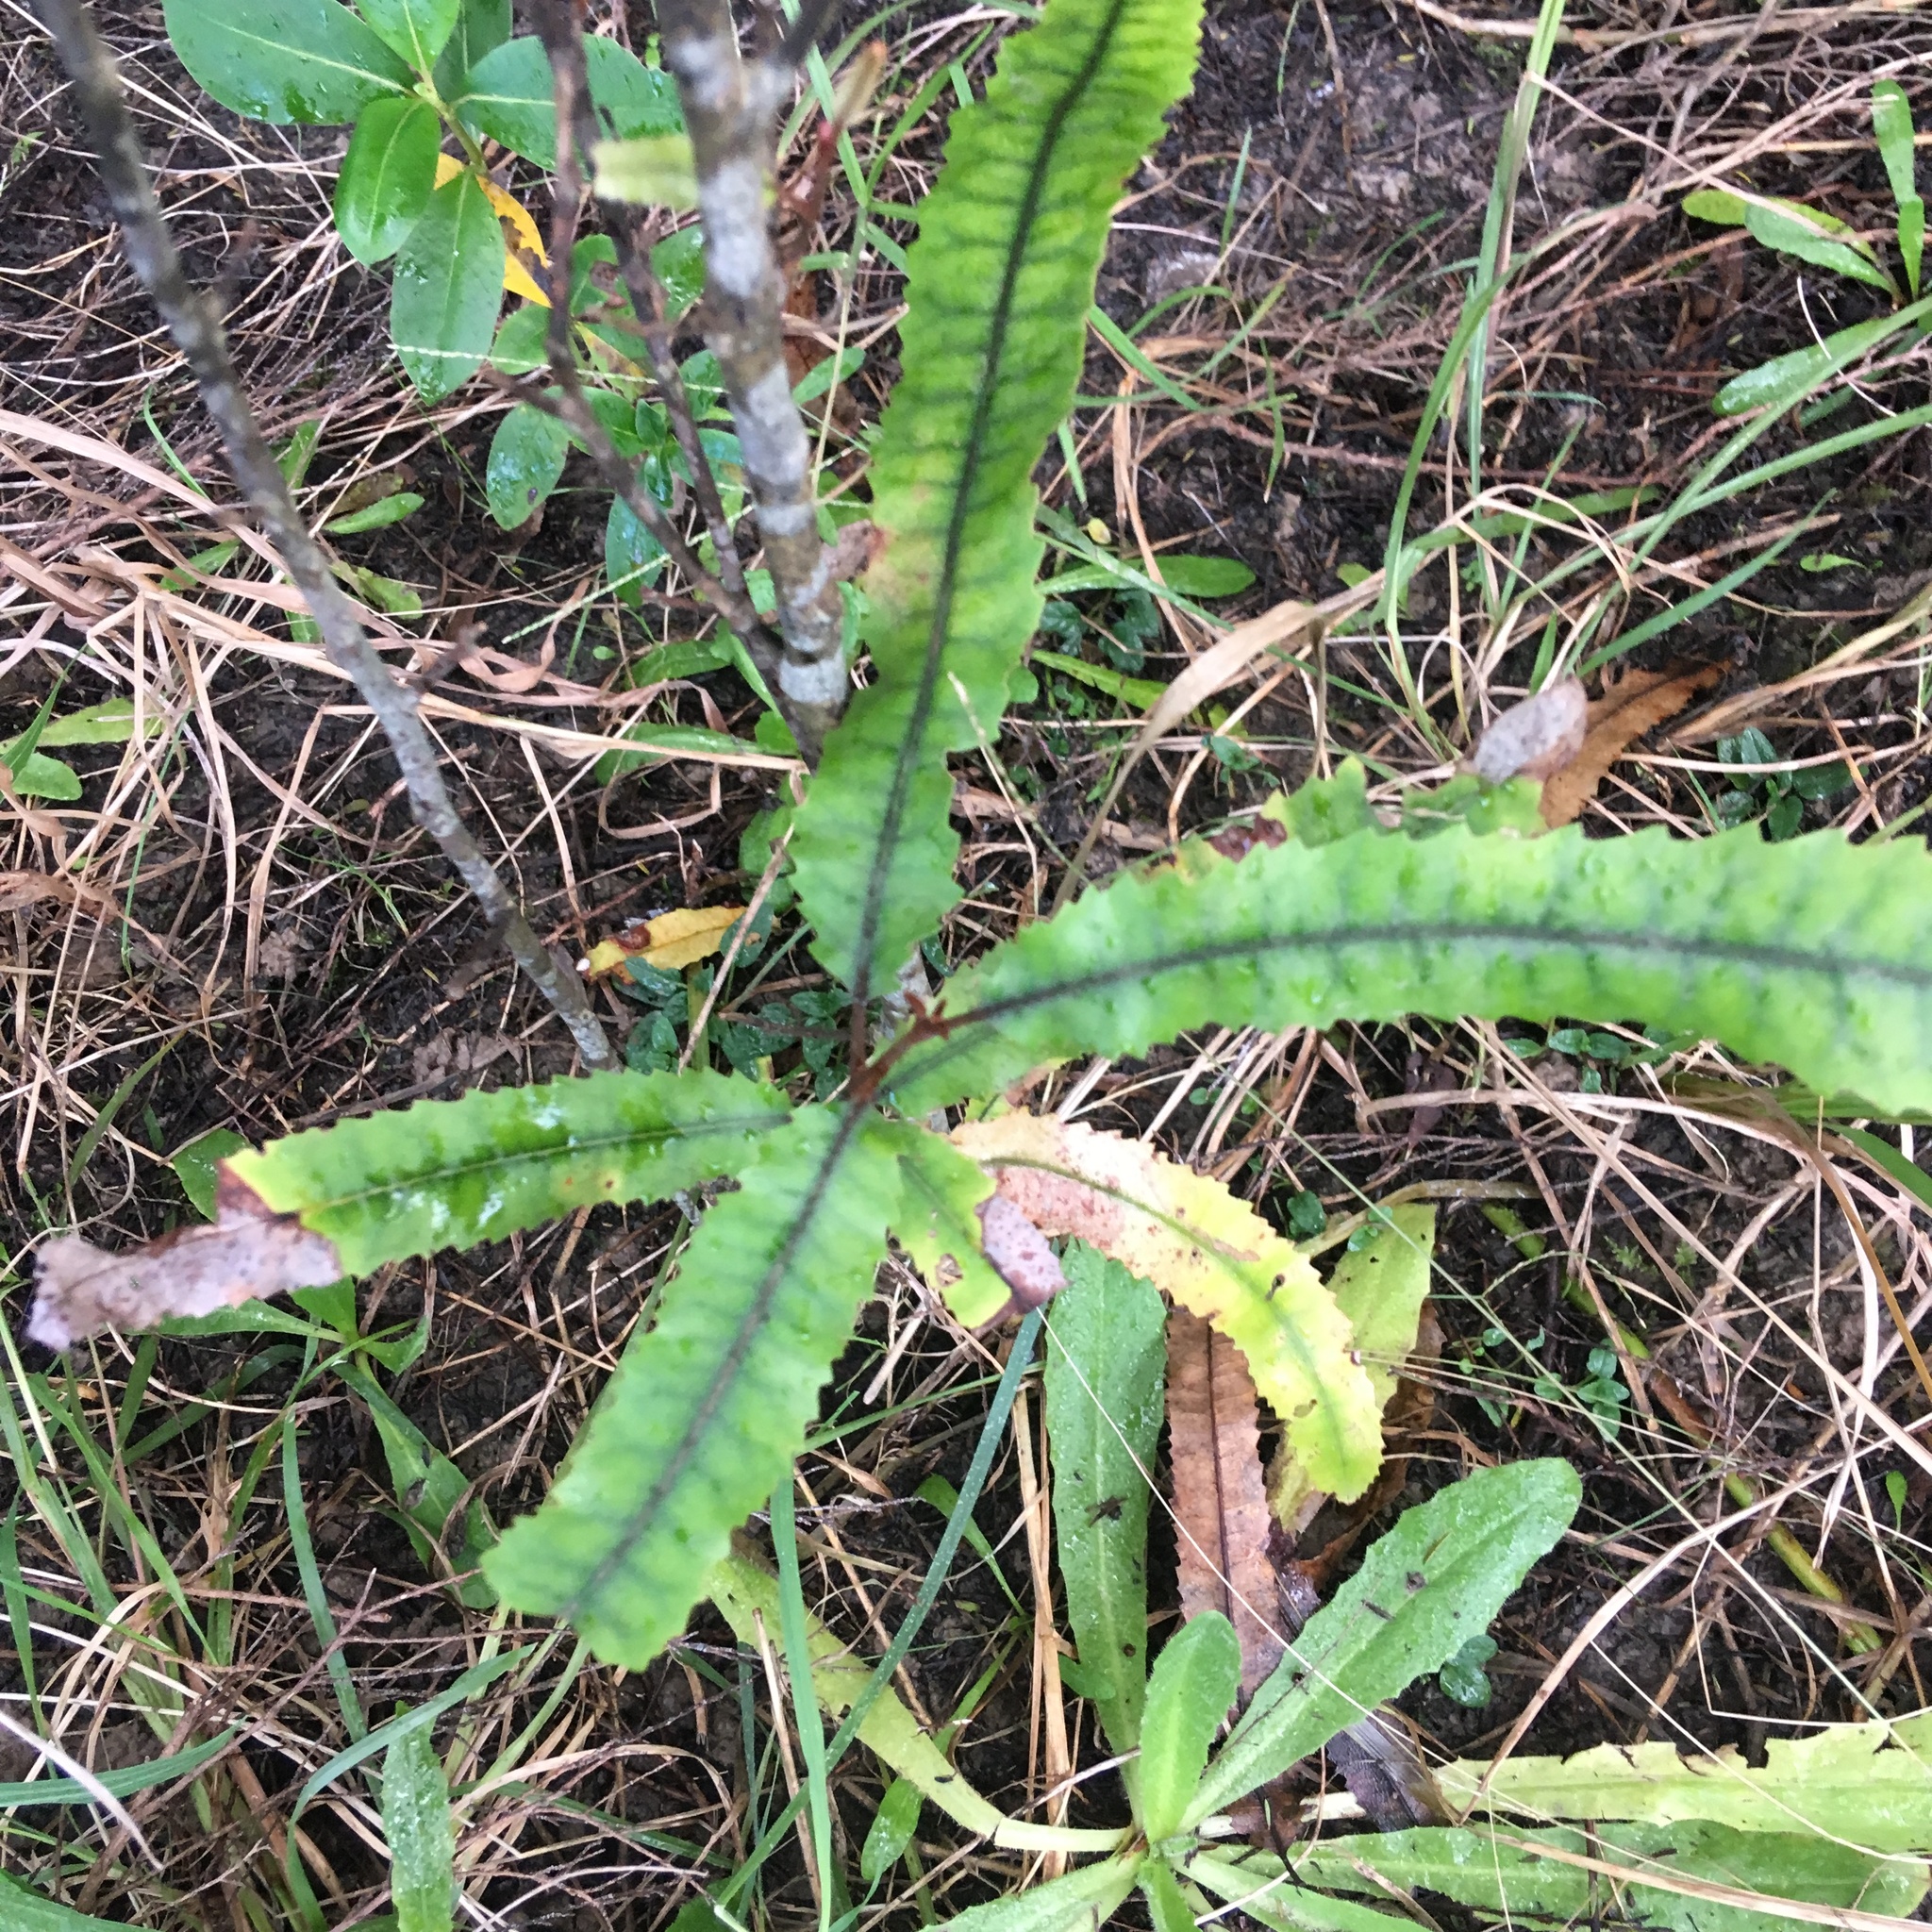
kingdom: Plantae
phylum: Tracheophyta
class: Magnoliopsida
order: Proteales
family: Proteaceae
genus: Knightia
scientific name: Knightia excelsa
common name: New zealand-honeysuckle
